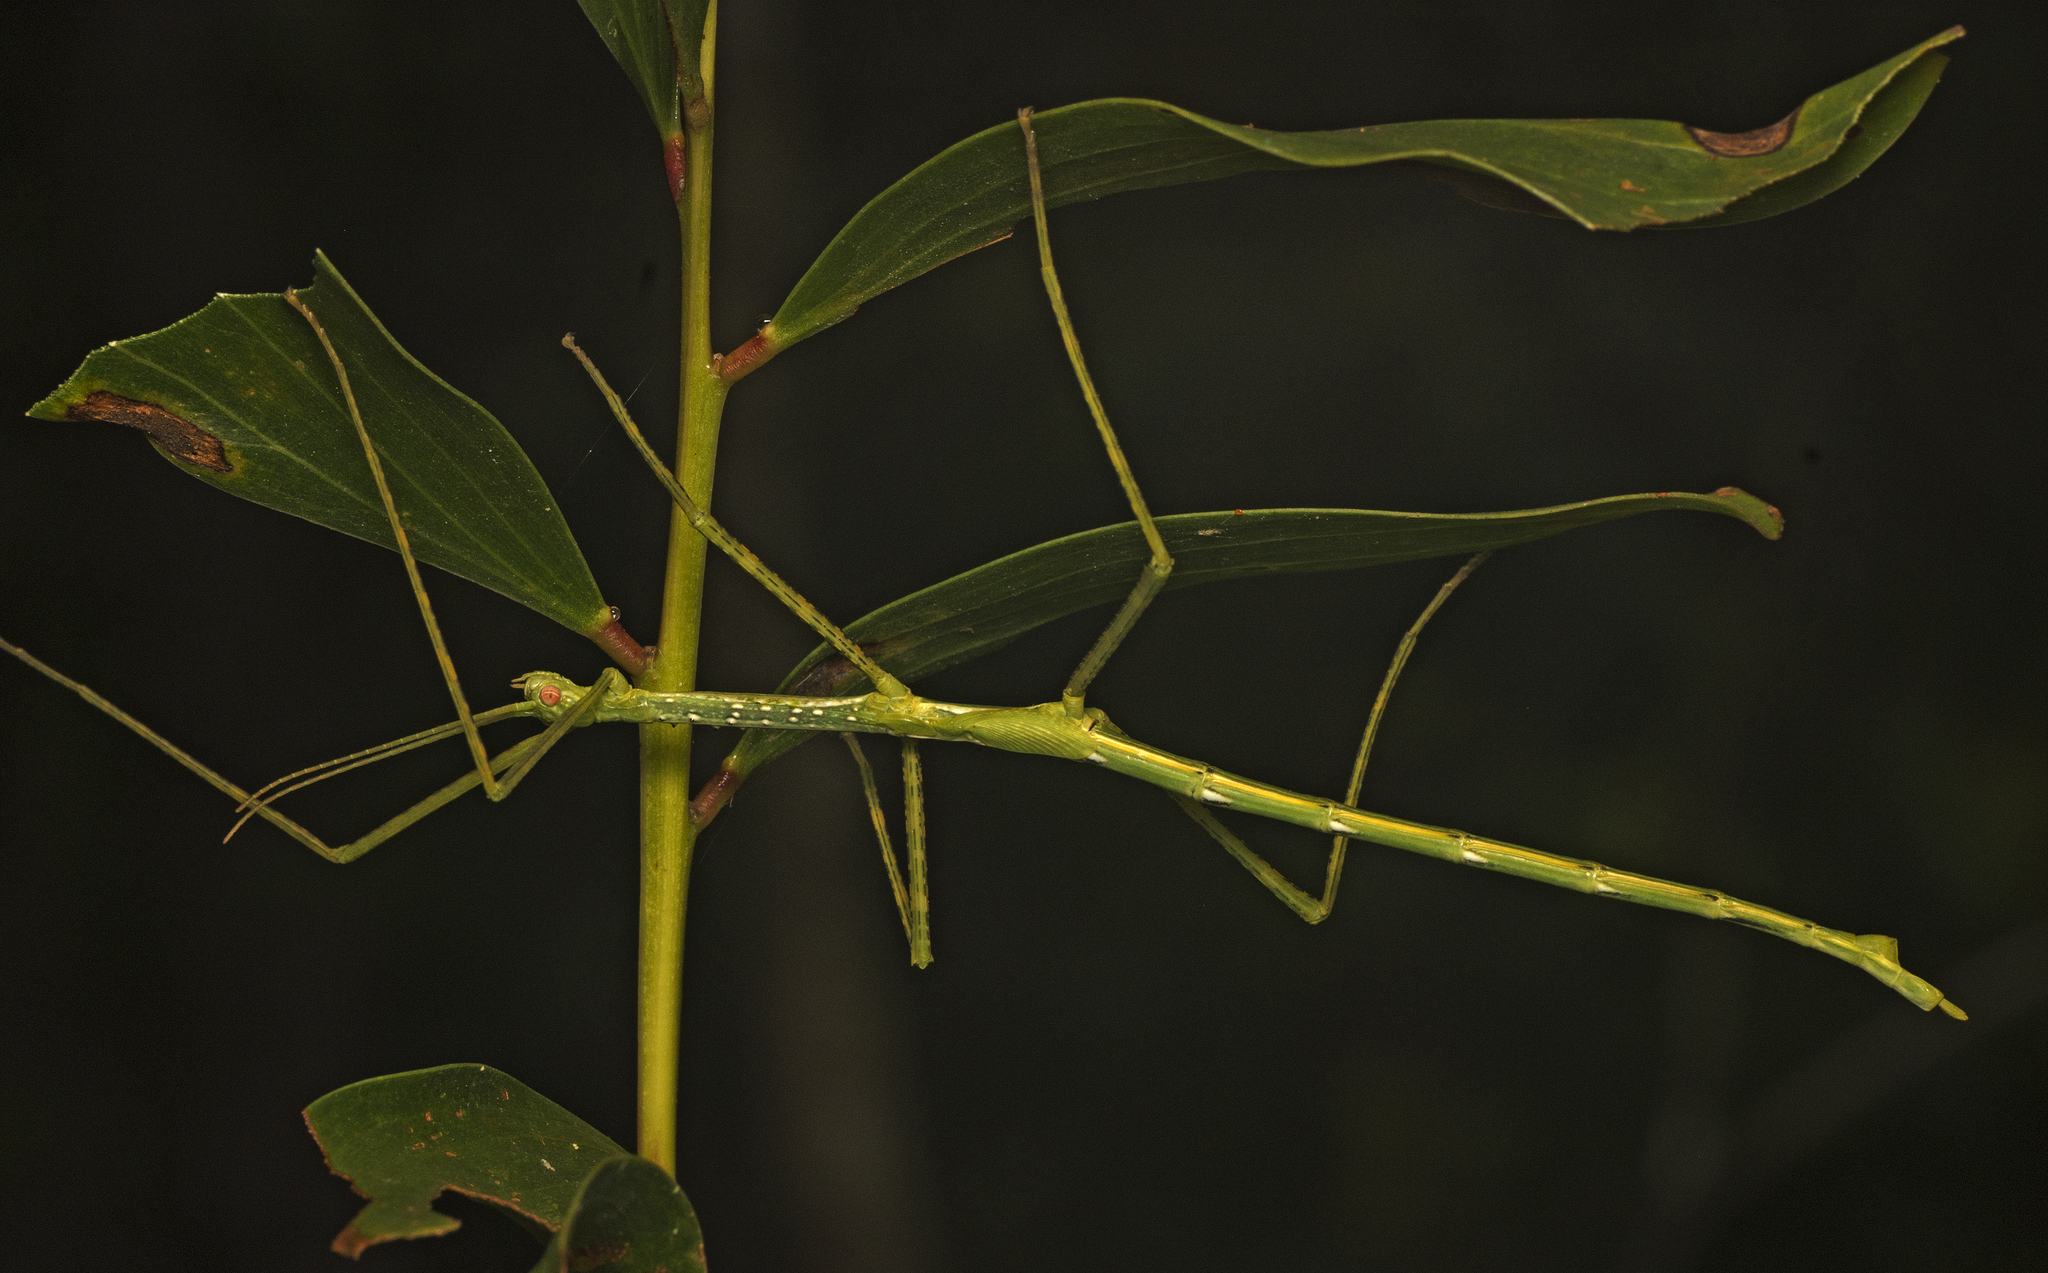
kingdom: Animalia
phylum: Arthropoda
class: Insecta
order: Phasmida
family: Phasmatidae
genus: Anchiale
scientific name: Anchiale austrotessulata
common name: Tessellated stick-insect
